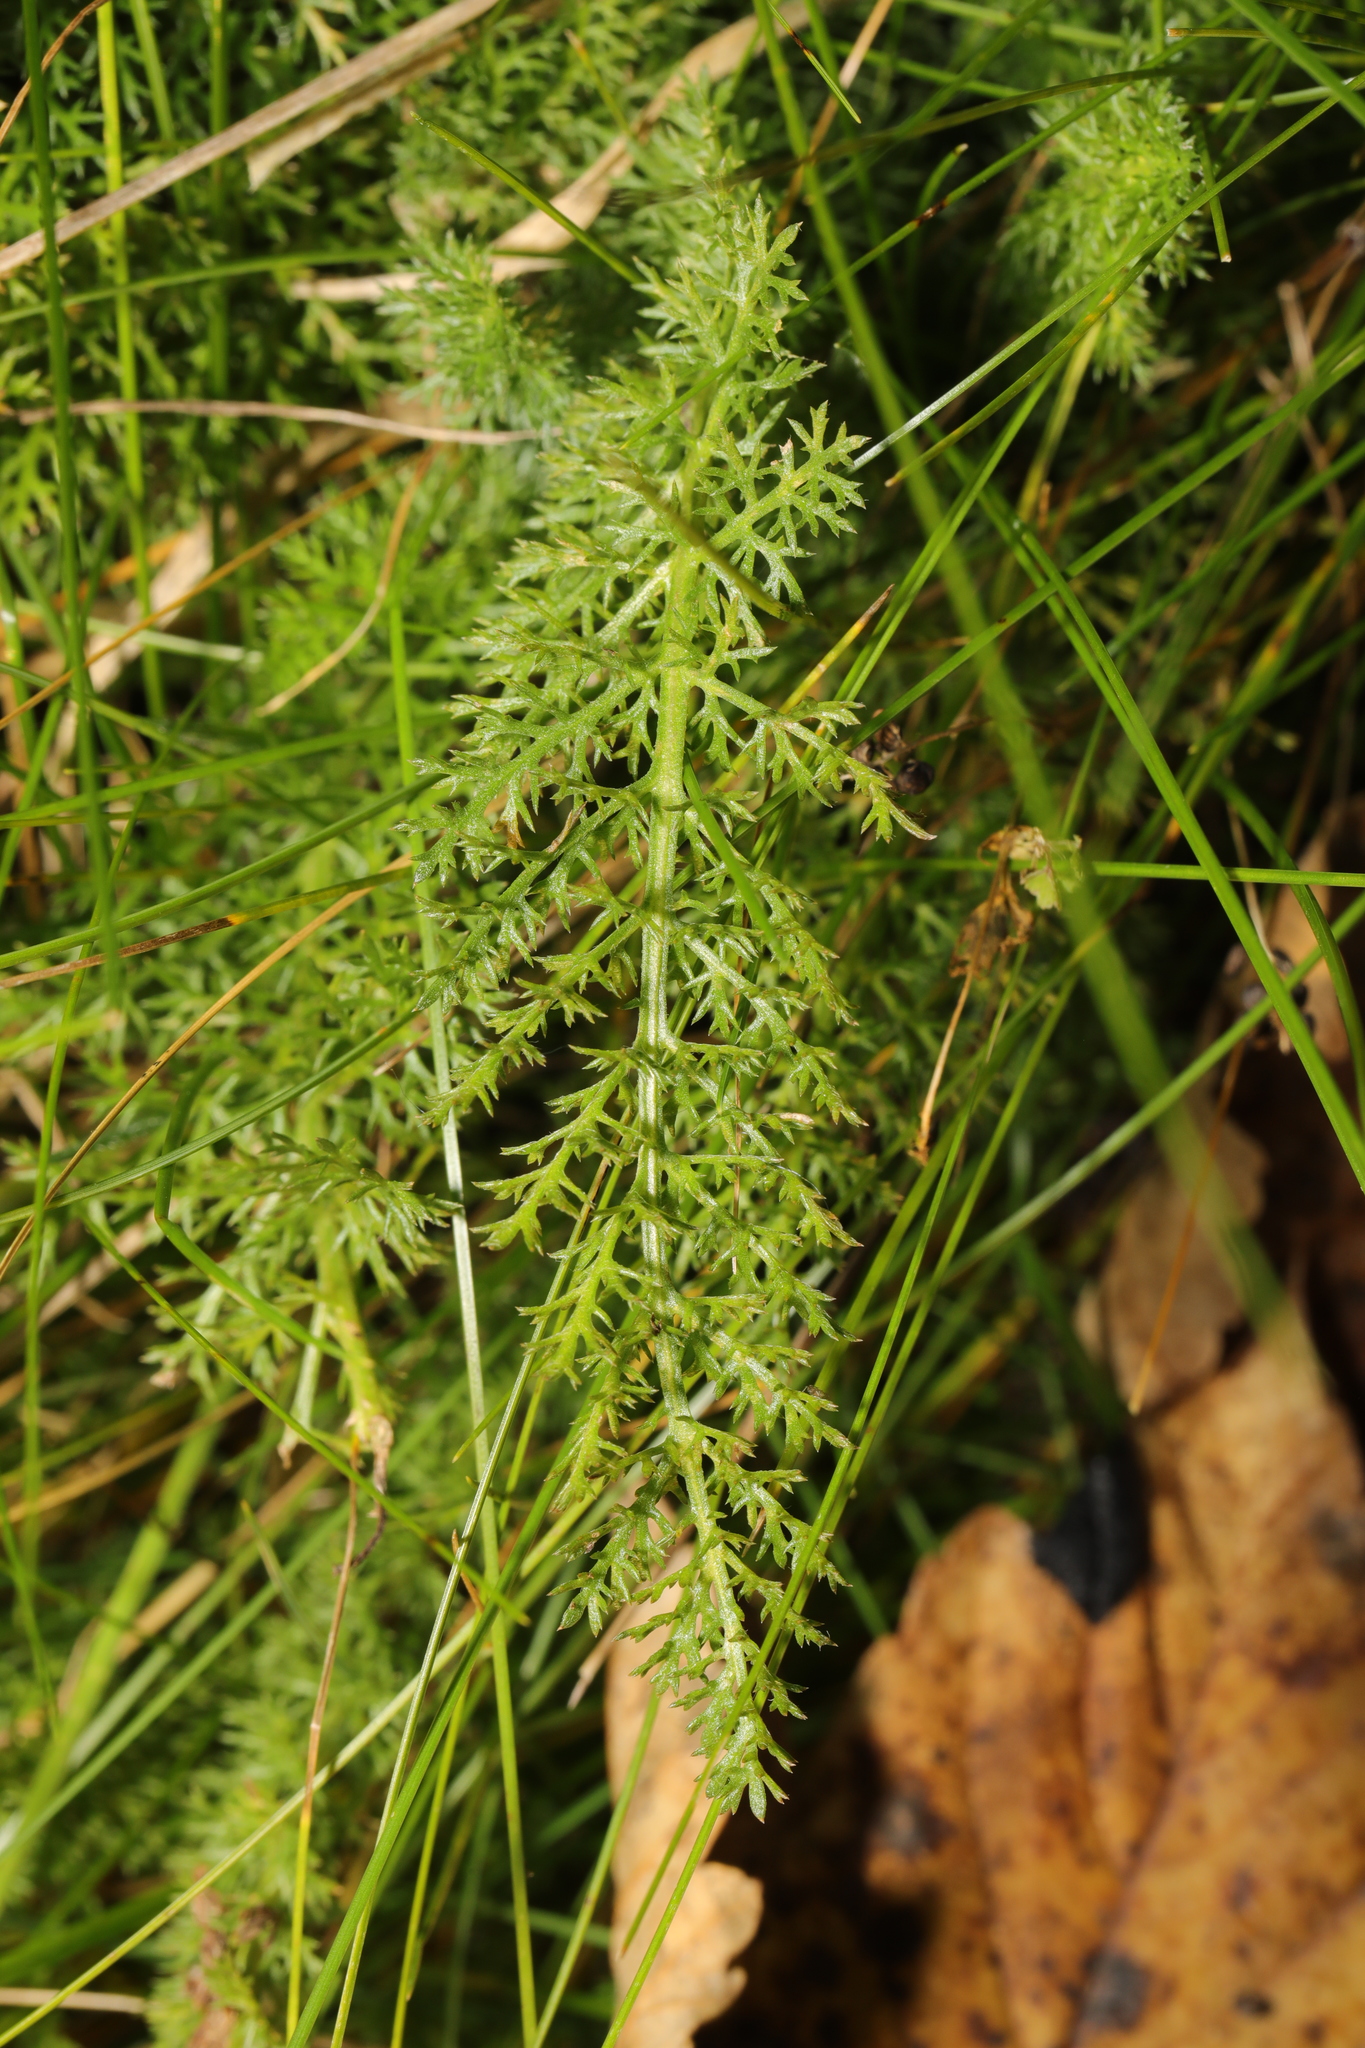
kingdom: Plantae
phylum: Tracheophyta
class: Magnoliopsida
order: Asterales
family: Asteraceae
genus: Achillea
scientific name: Achillea millefolium
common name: Yarrow
